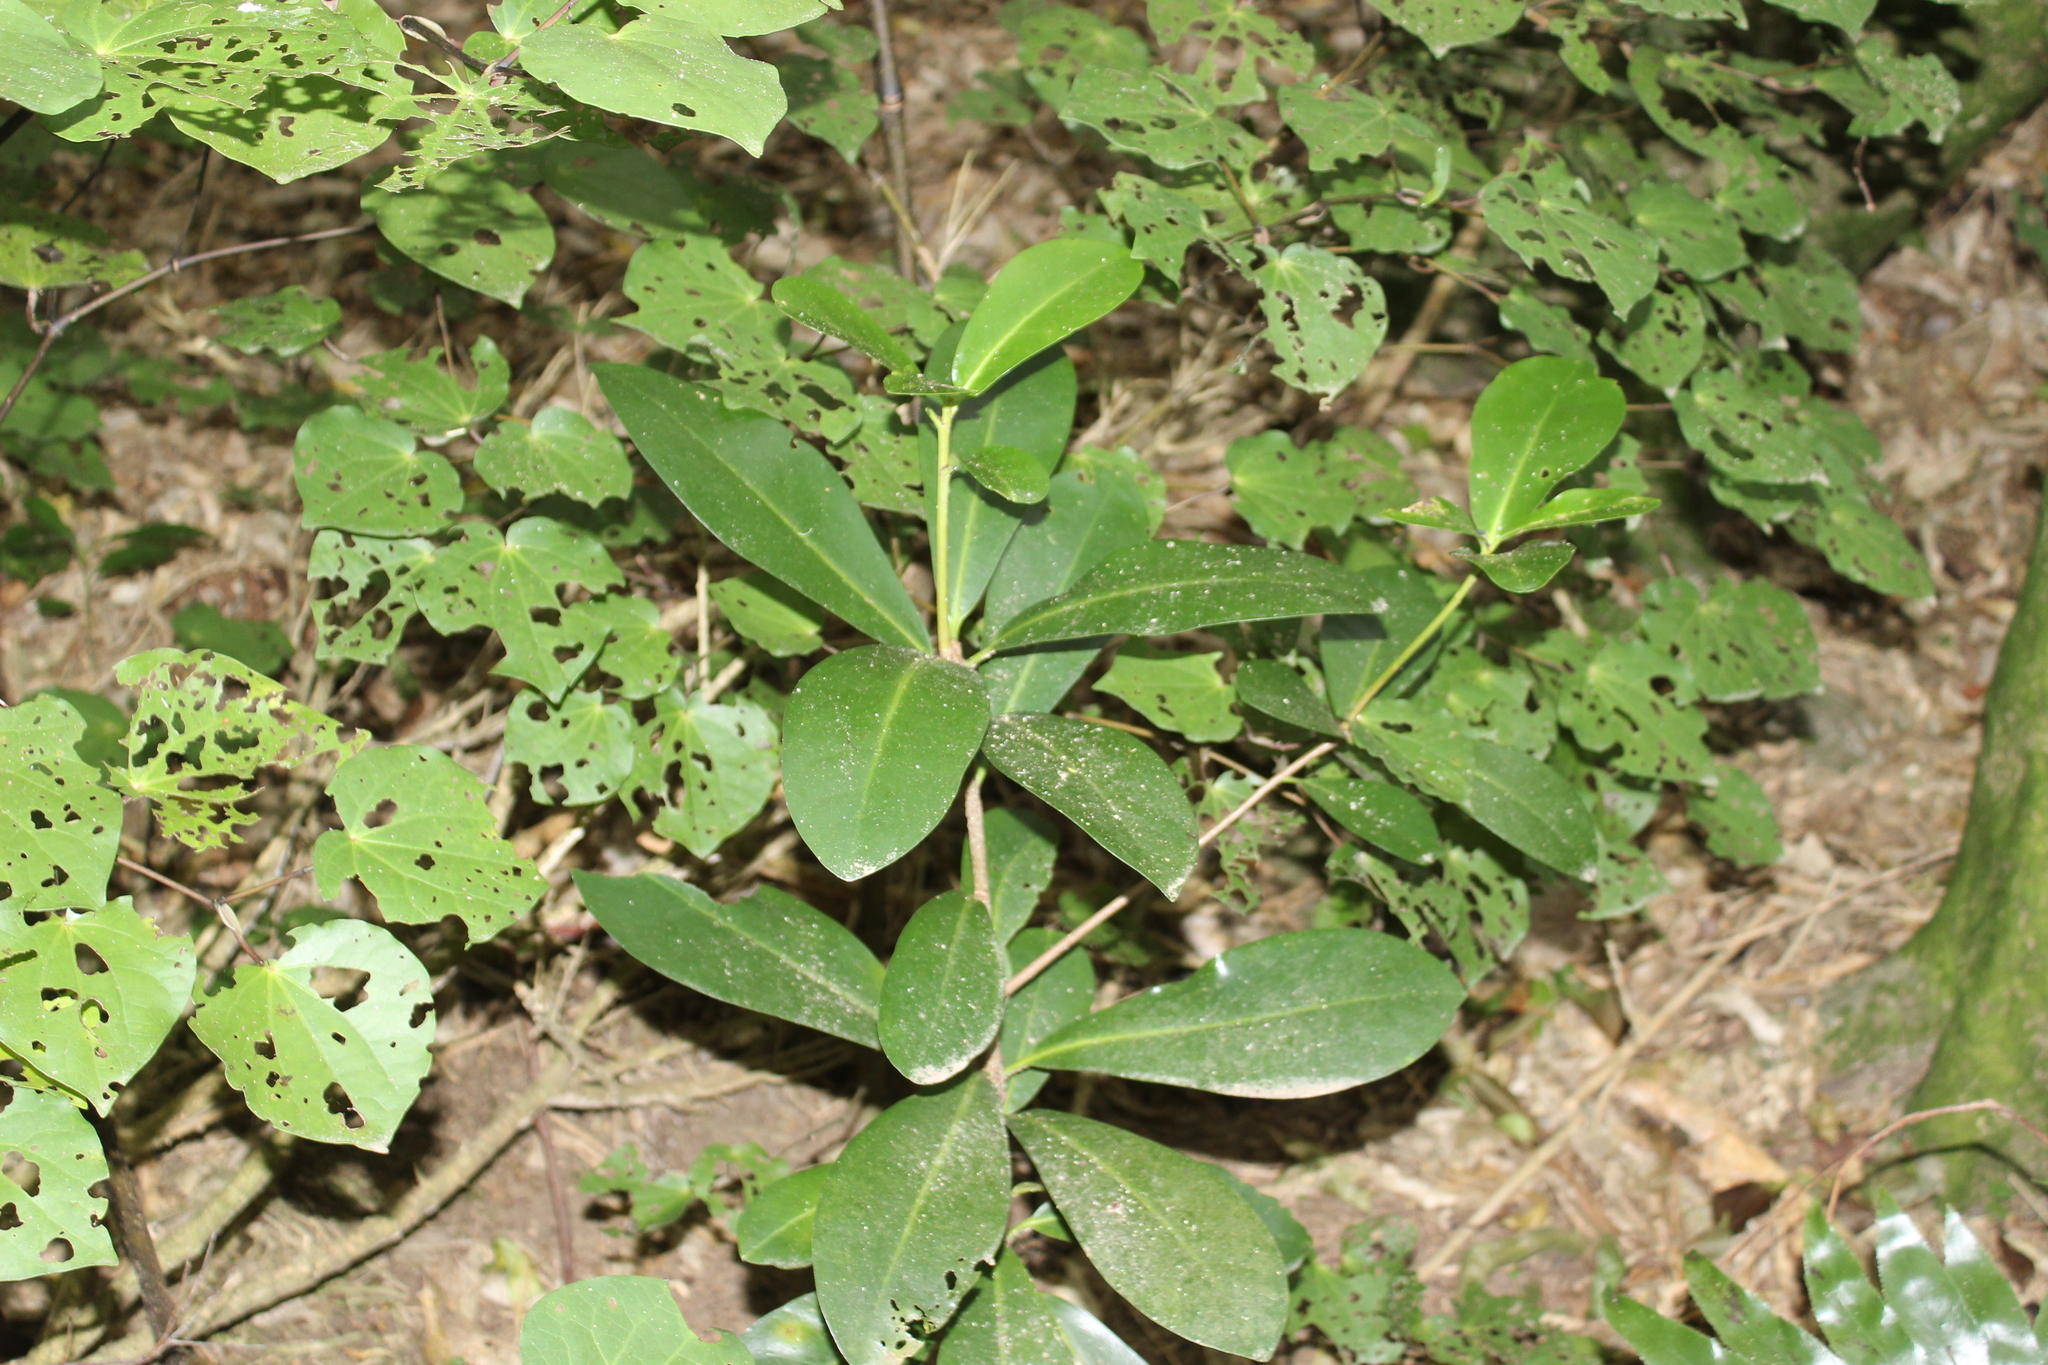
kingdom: Plantae
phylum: Tracheophyta
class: Magnoliopsida
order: Cucurbitales
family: Corynocarpaceae
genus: Corynocarpus
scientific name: Corynocarpus laevigatus
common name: New zealand laurel
